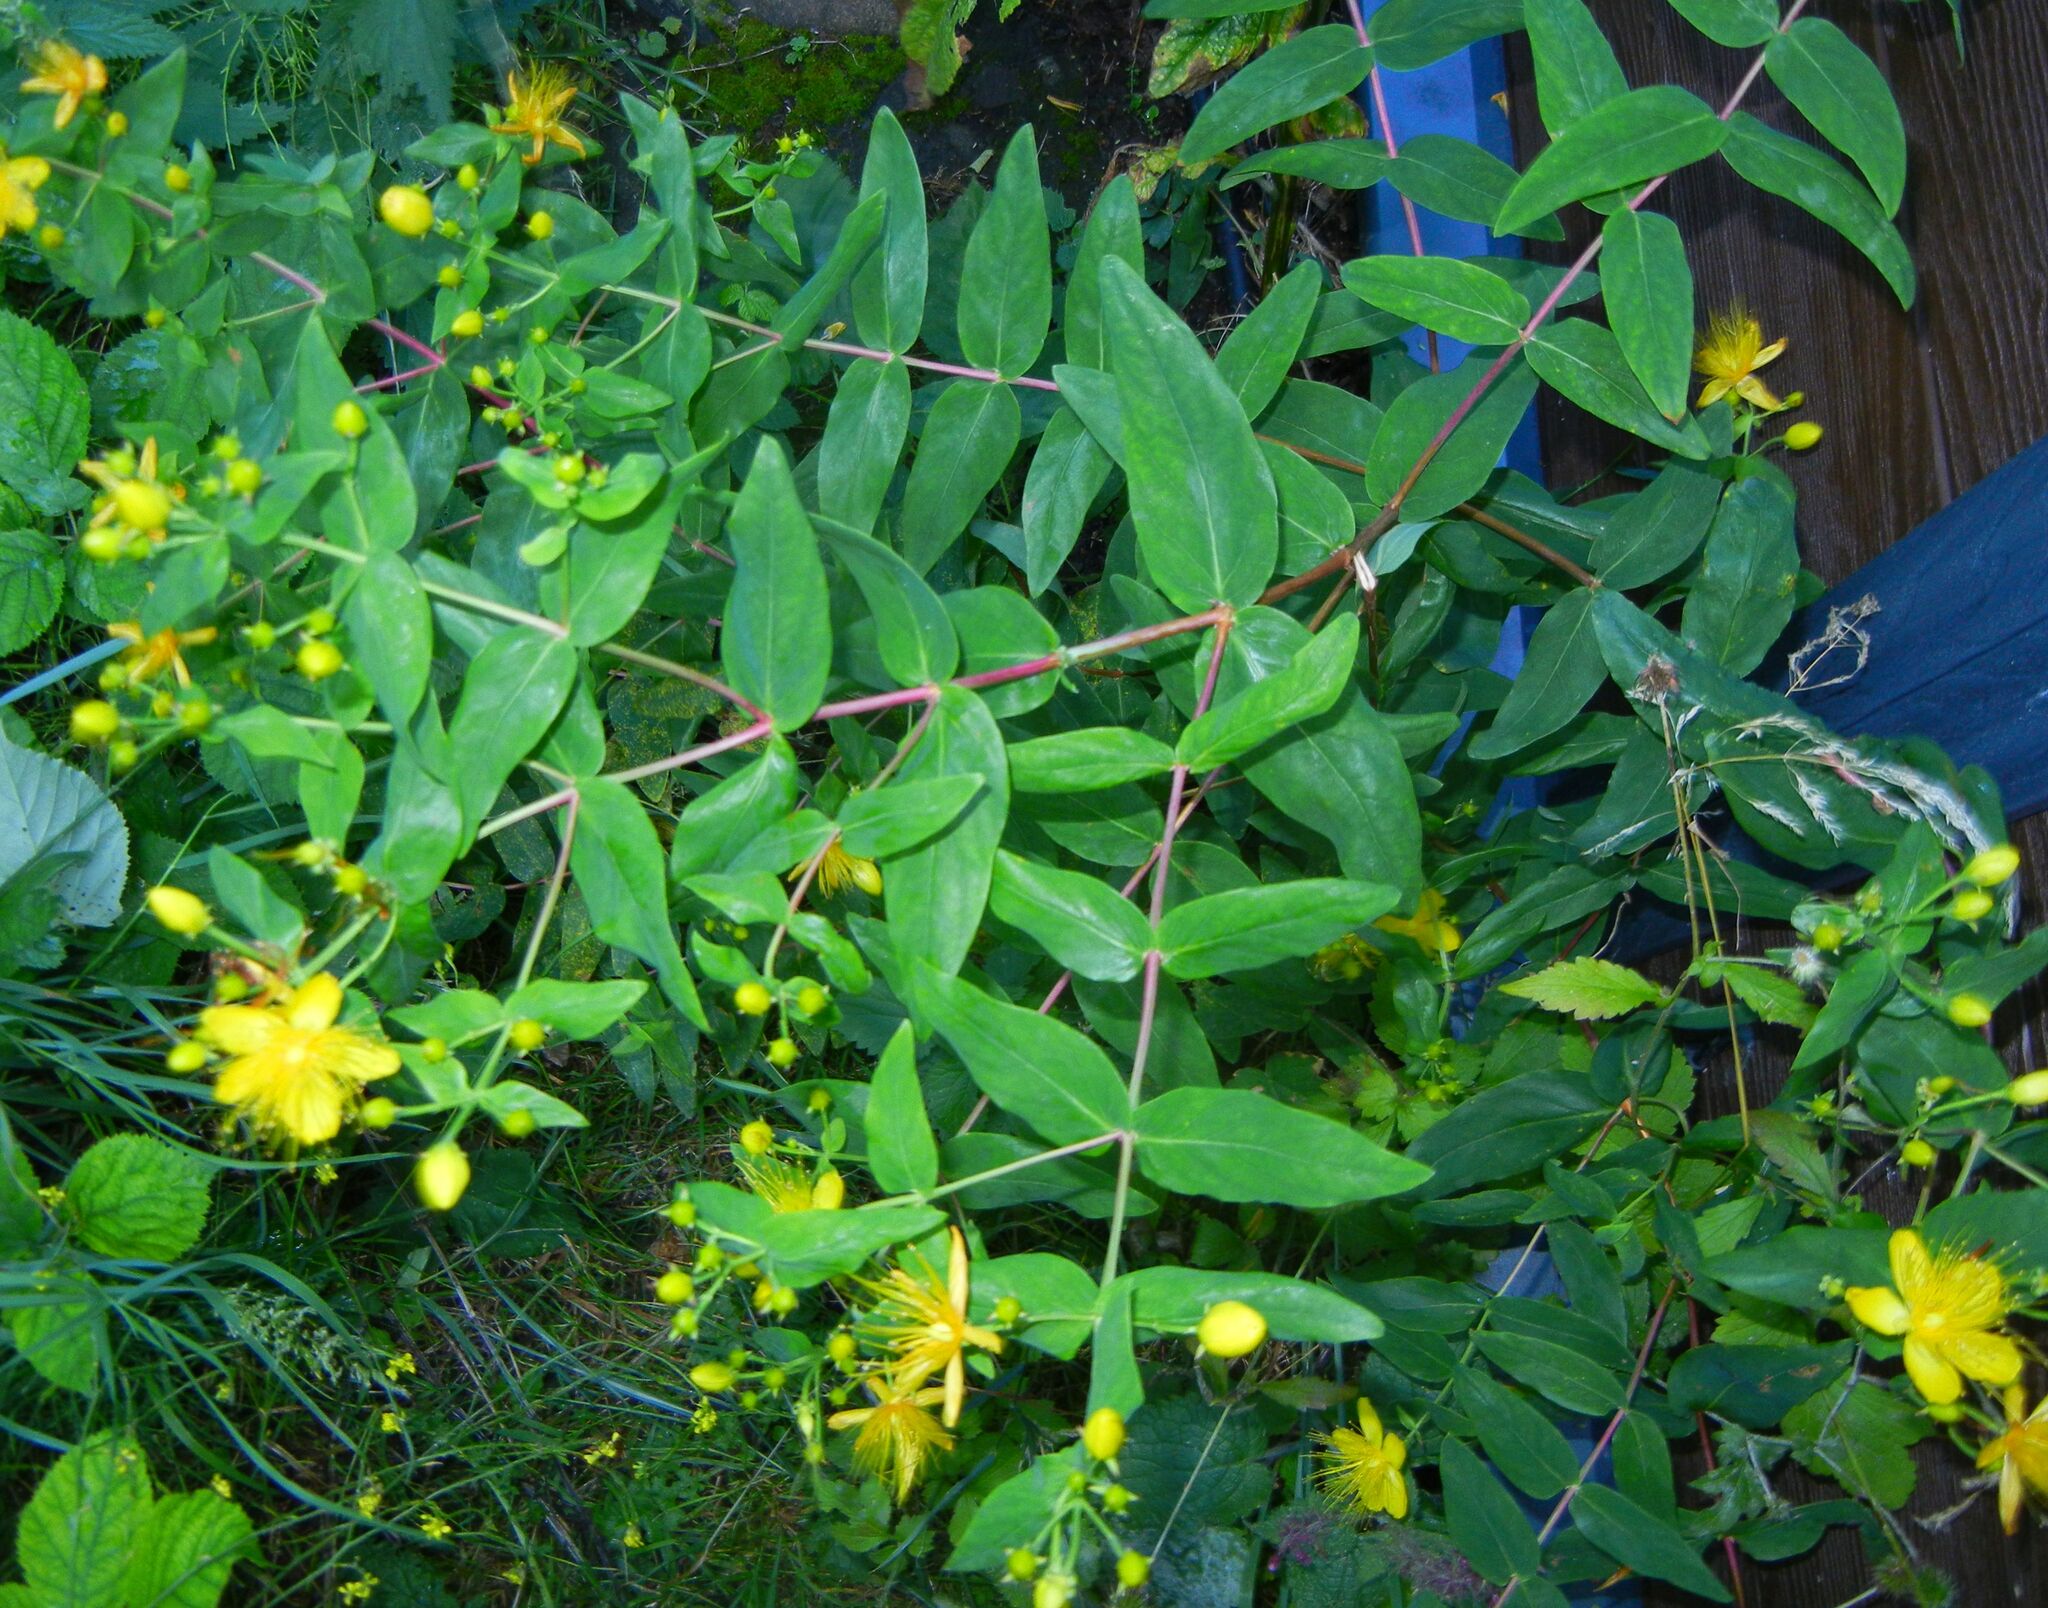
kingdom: Plantae
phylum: Tracheophyta
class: Magnoliopsida
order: Malpighiales
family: Hypericaceae
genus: Hypericum
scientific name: Hypericum hircinum
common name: Stinking tutsan
